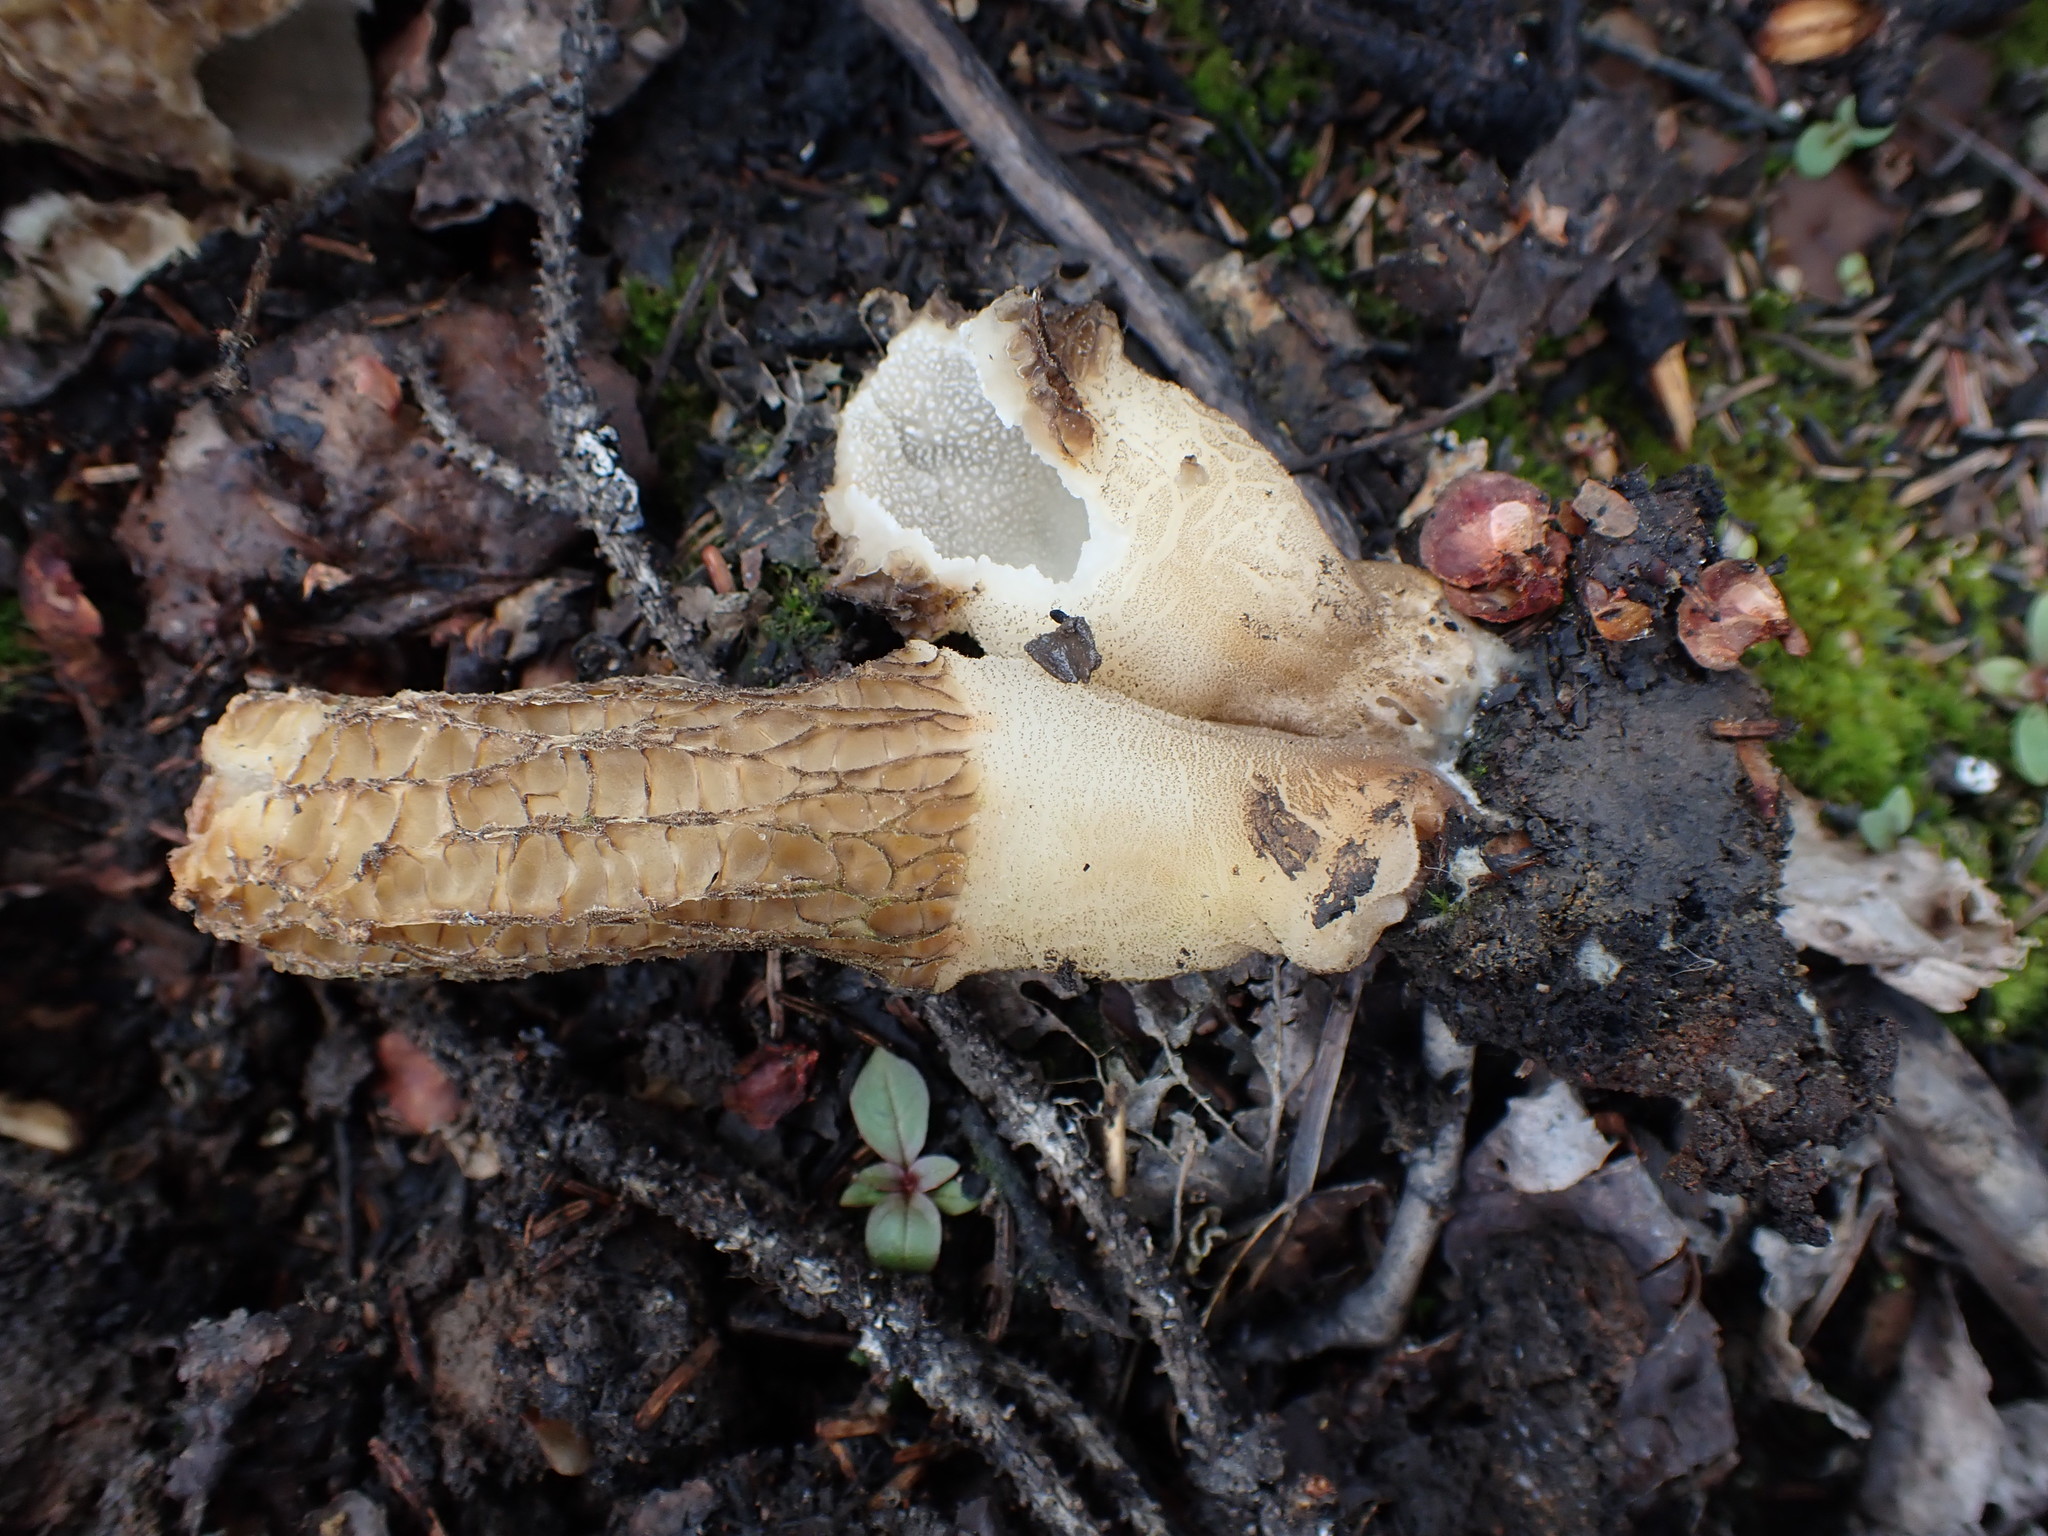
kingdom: Fungi
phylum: Ascomycota
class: Pezizomycetes
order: Pezizales
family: Morchellaceae
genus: Morchella
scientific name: Morchella tomentosa
